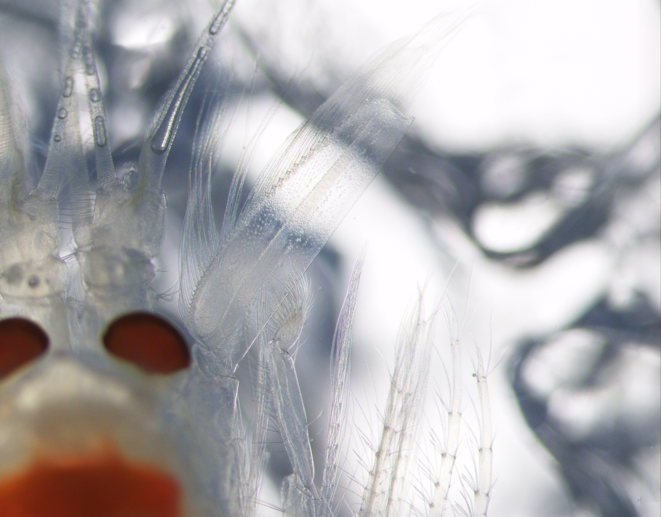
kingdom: Animalia
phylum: Arthropoda
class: Malacostraca
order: Mysida
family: Mysidae
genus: Boreomysis
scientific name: Boreomysis arctica
